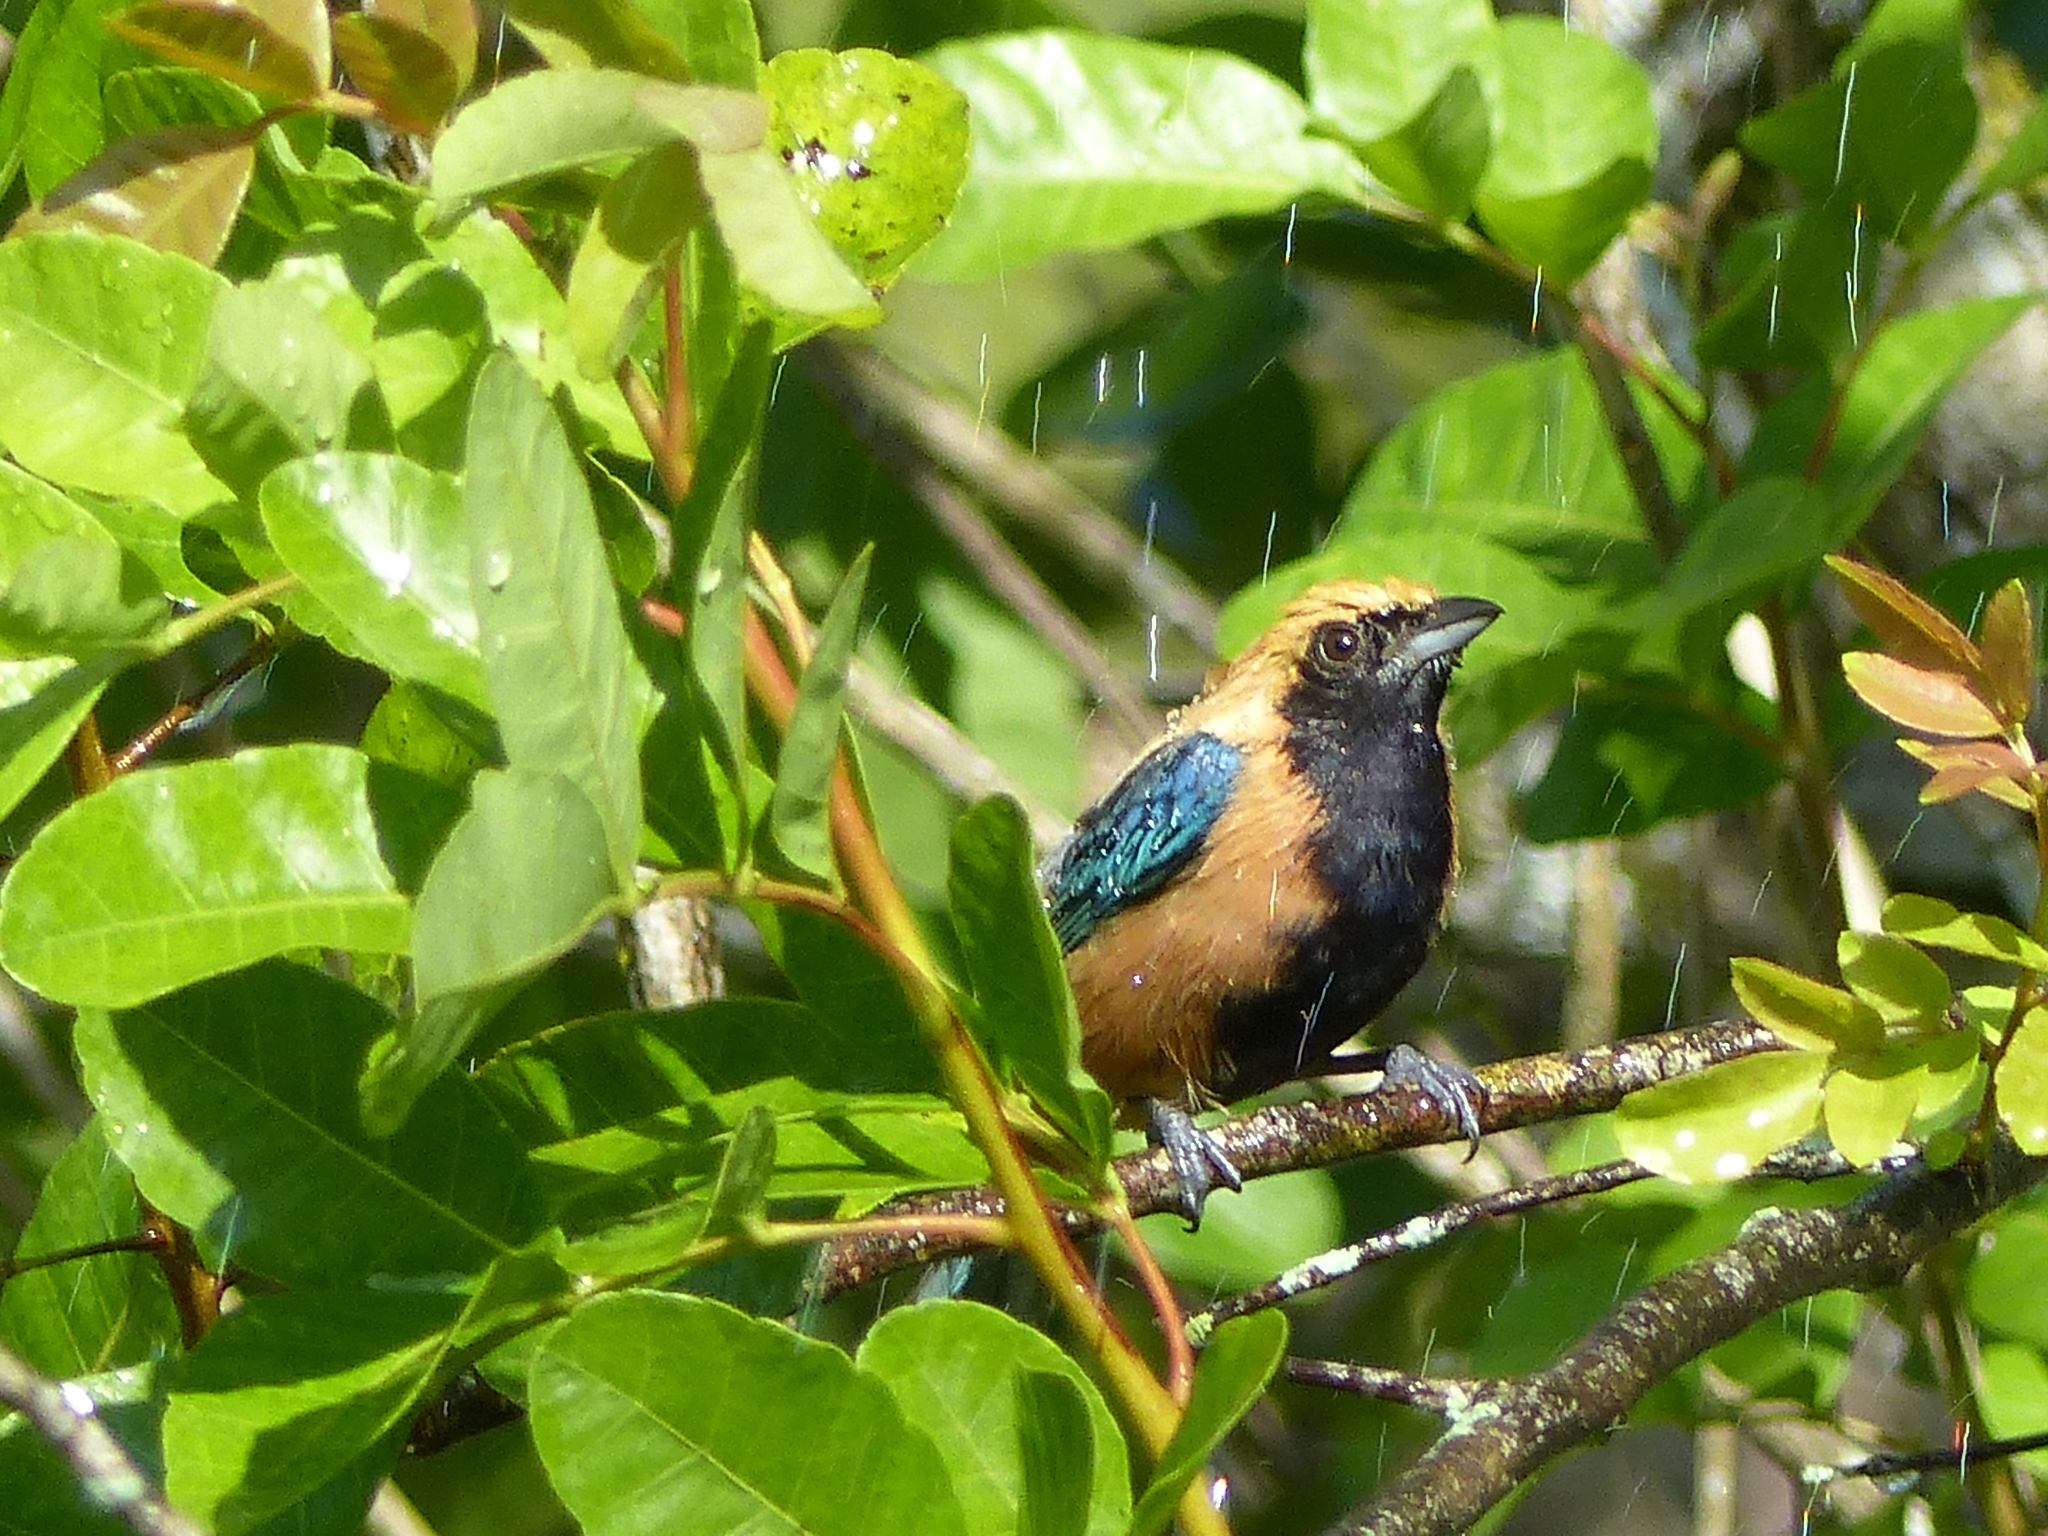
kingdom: Animalia
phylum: Chordata
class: Aves
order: Passeriformes
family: Thraupidae
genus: Stilpnia
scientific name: Stilpnia cayana
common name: Burnished-buff tanager
